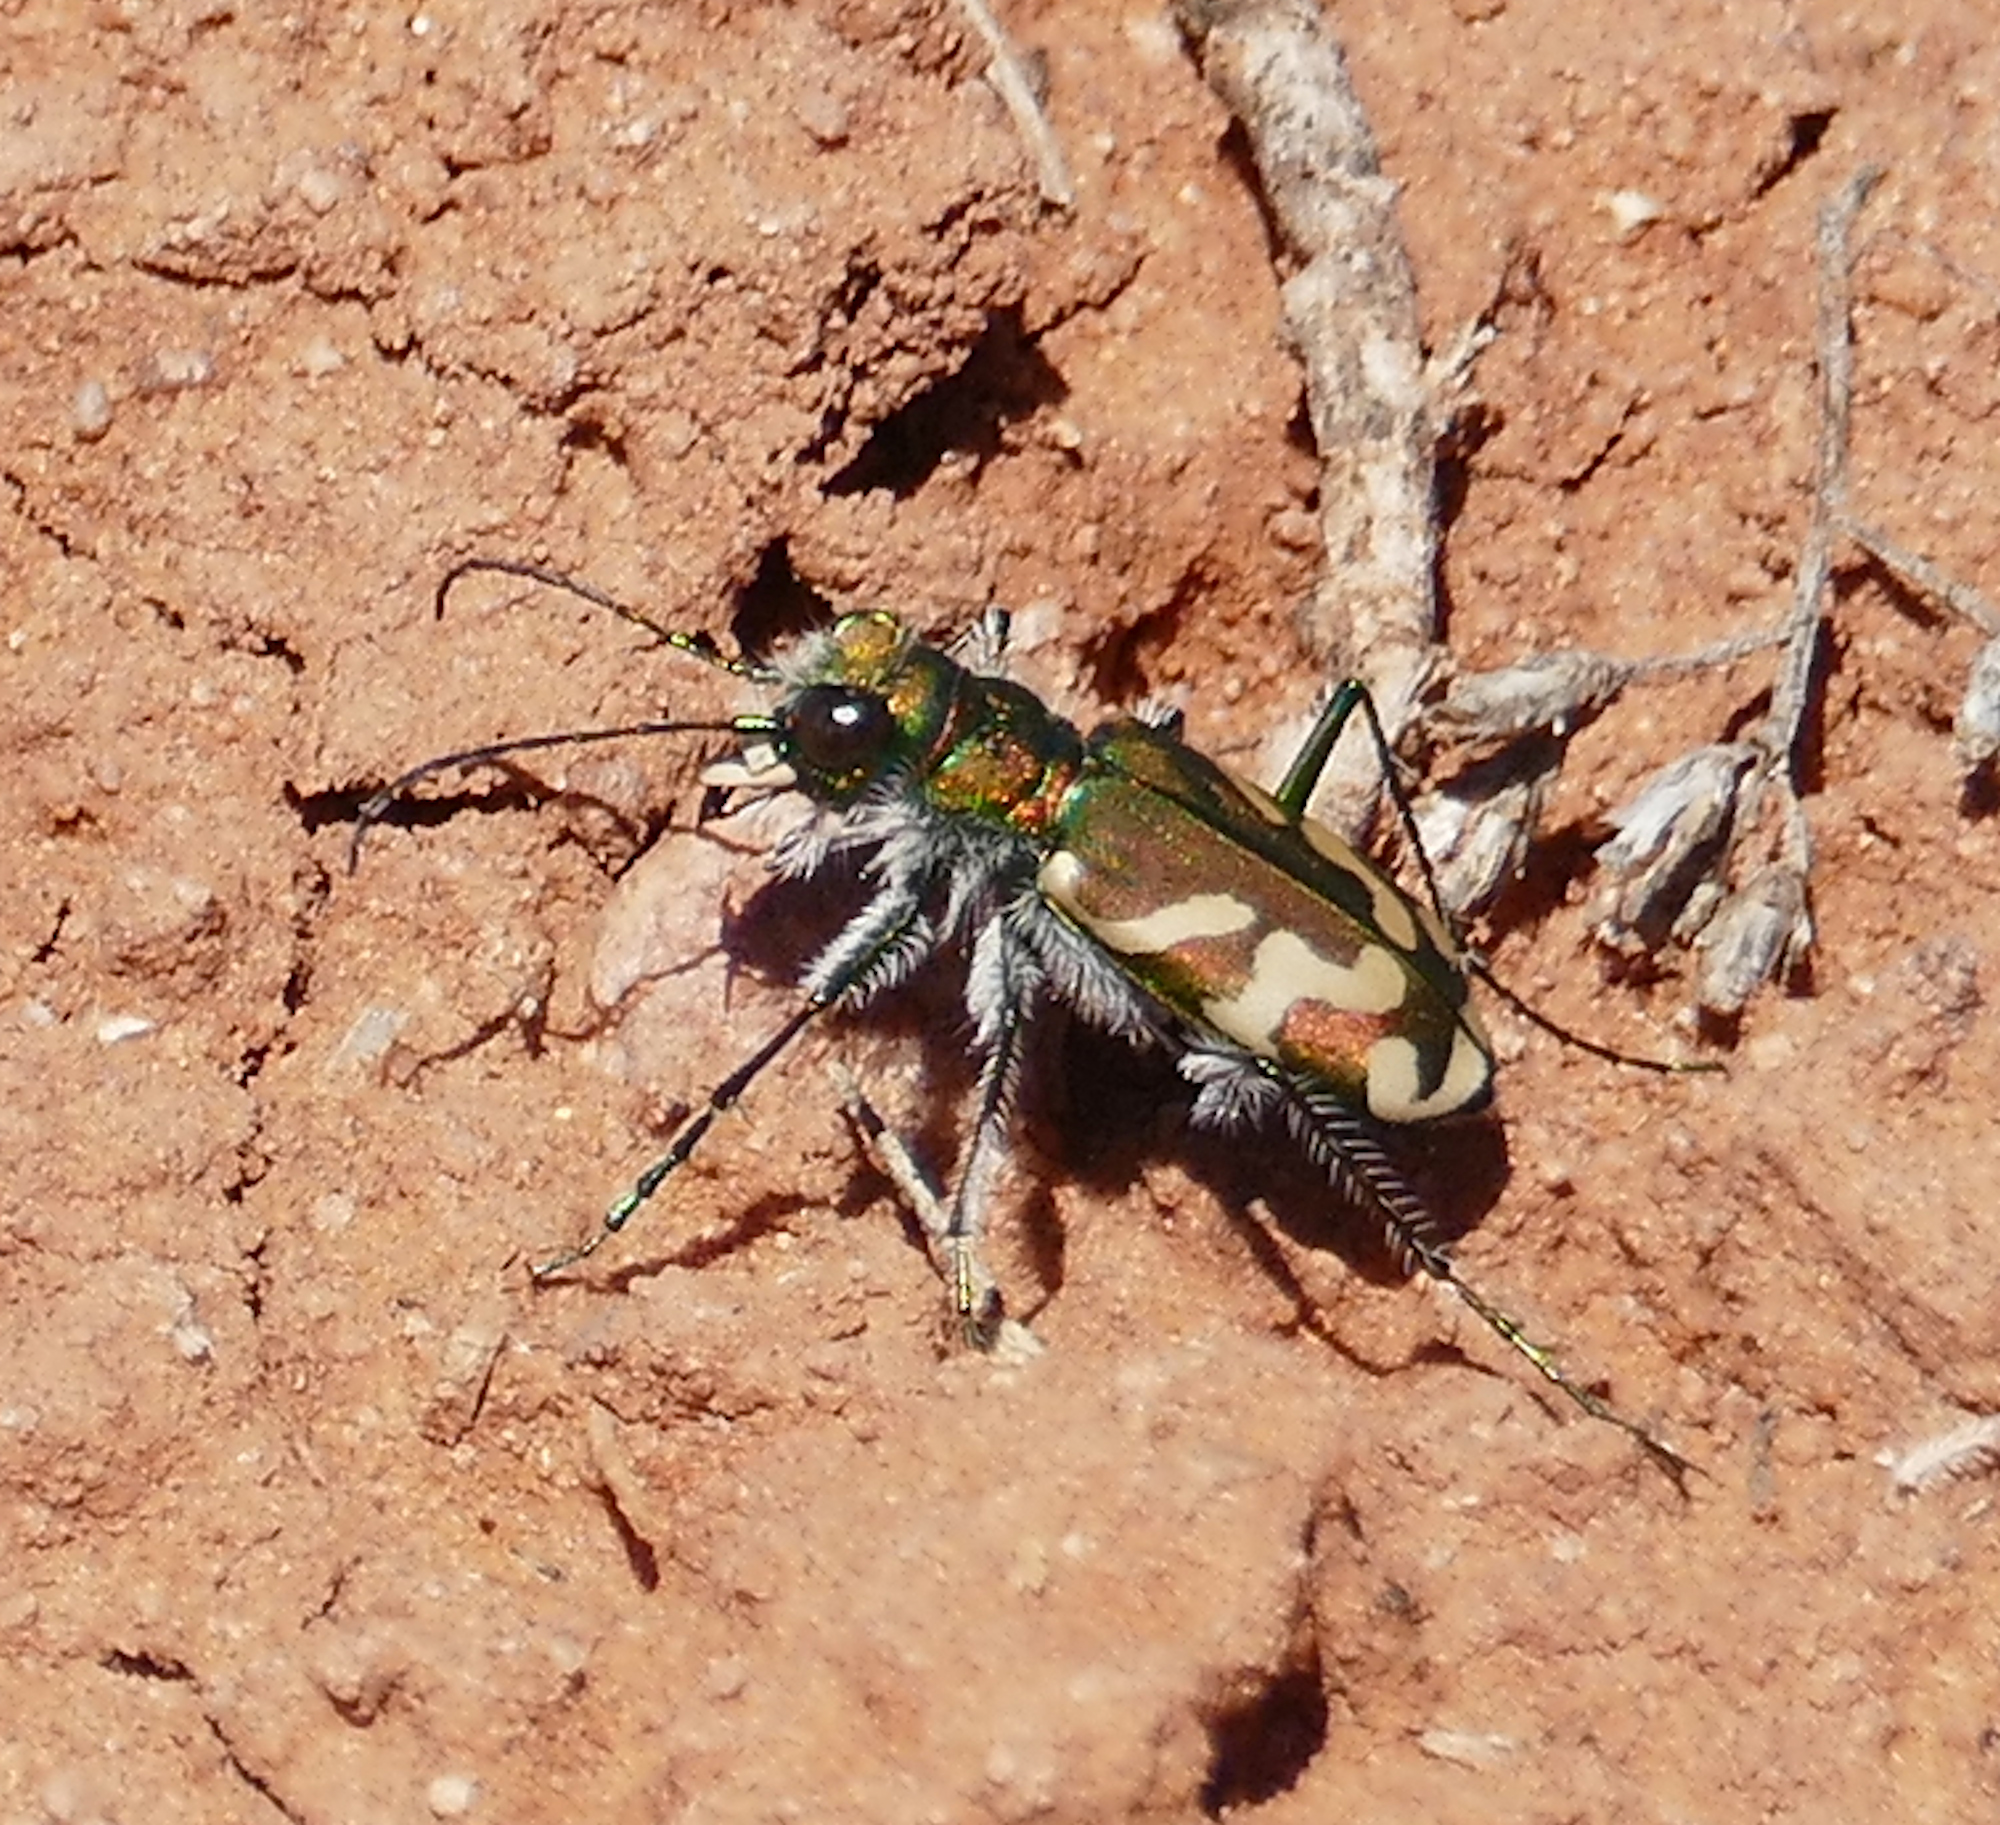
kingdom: Animalia
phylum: Arthropoda
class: Insecta
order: Coleoptera
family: Carabidae
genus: Cicindela
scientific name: Cicindela tranquebarica
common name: Oblique-lined tiger beetle
